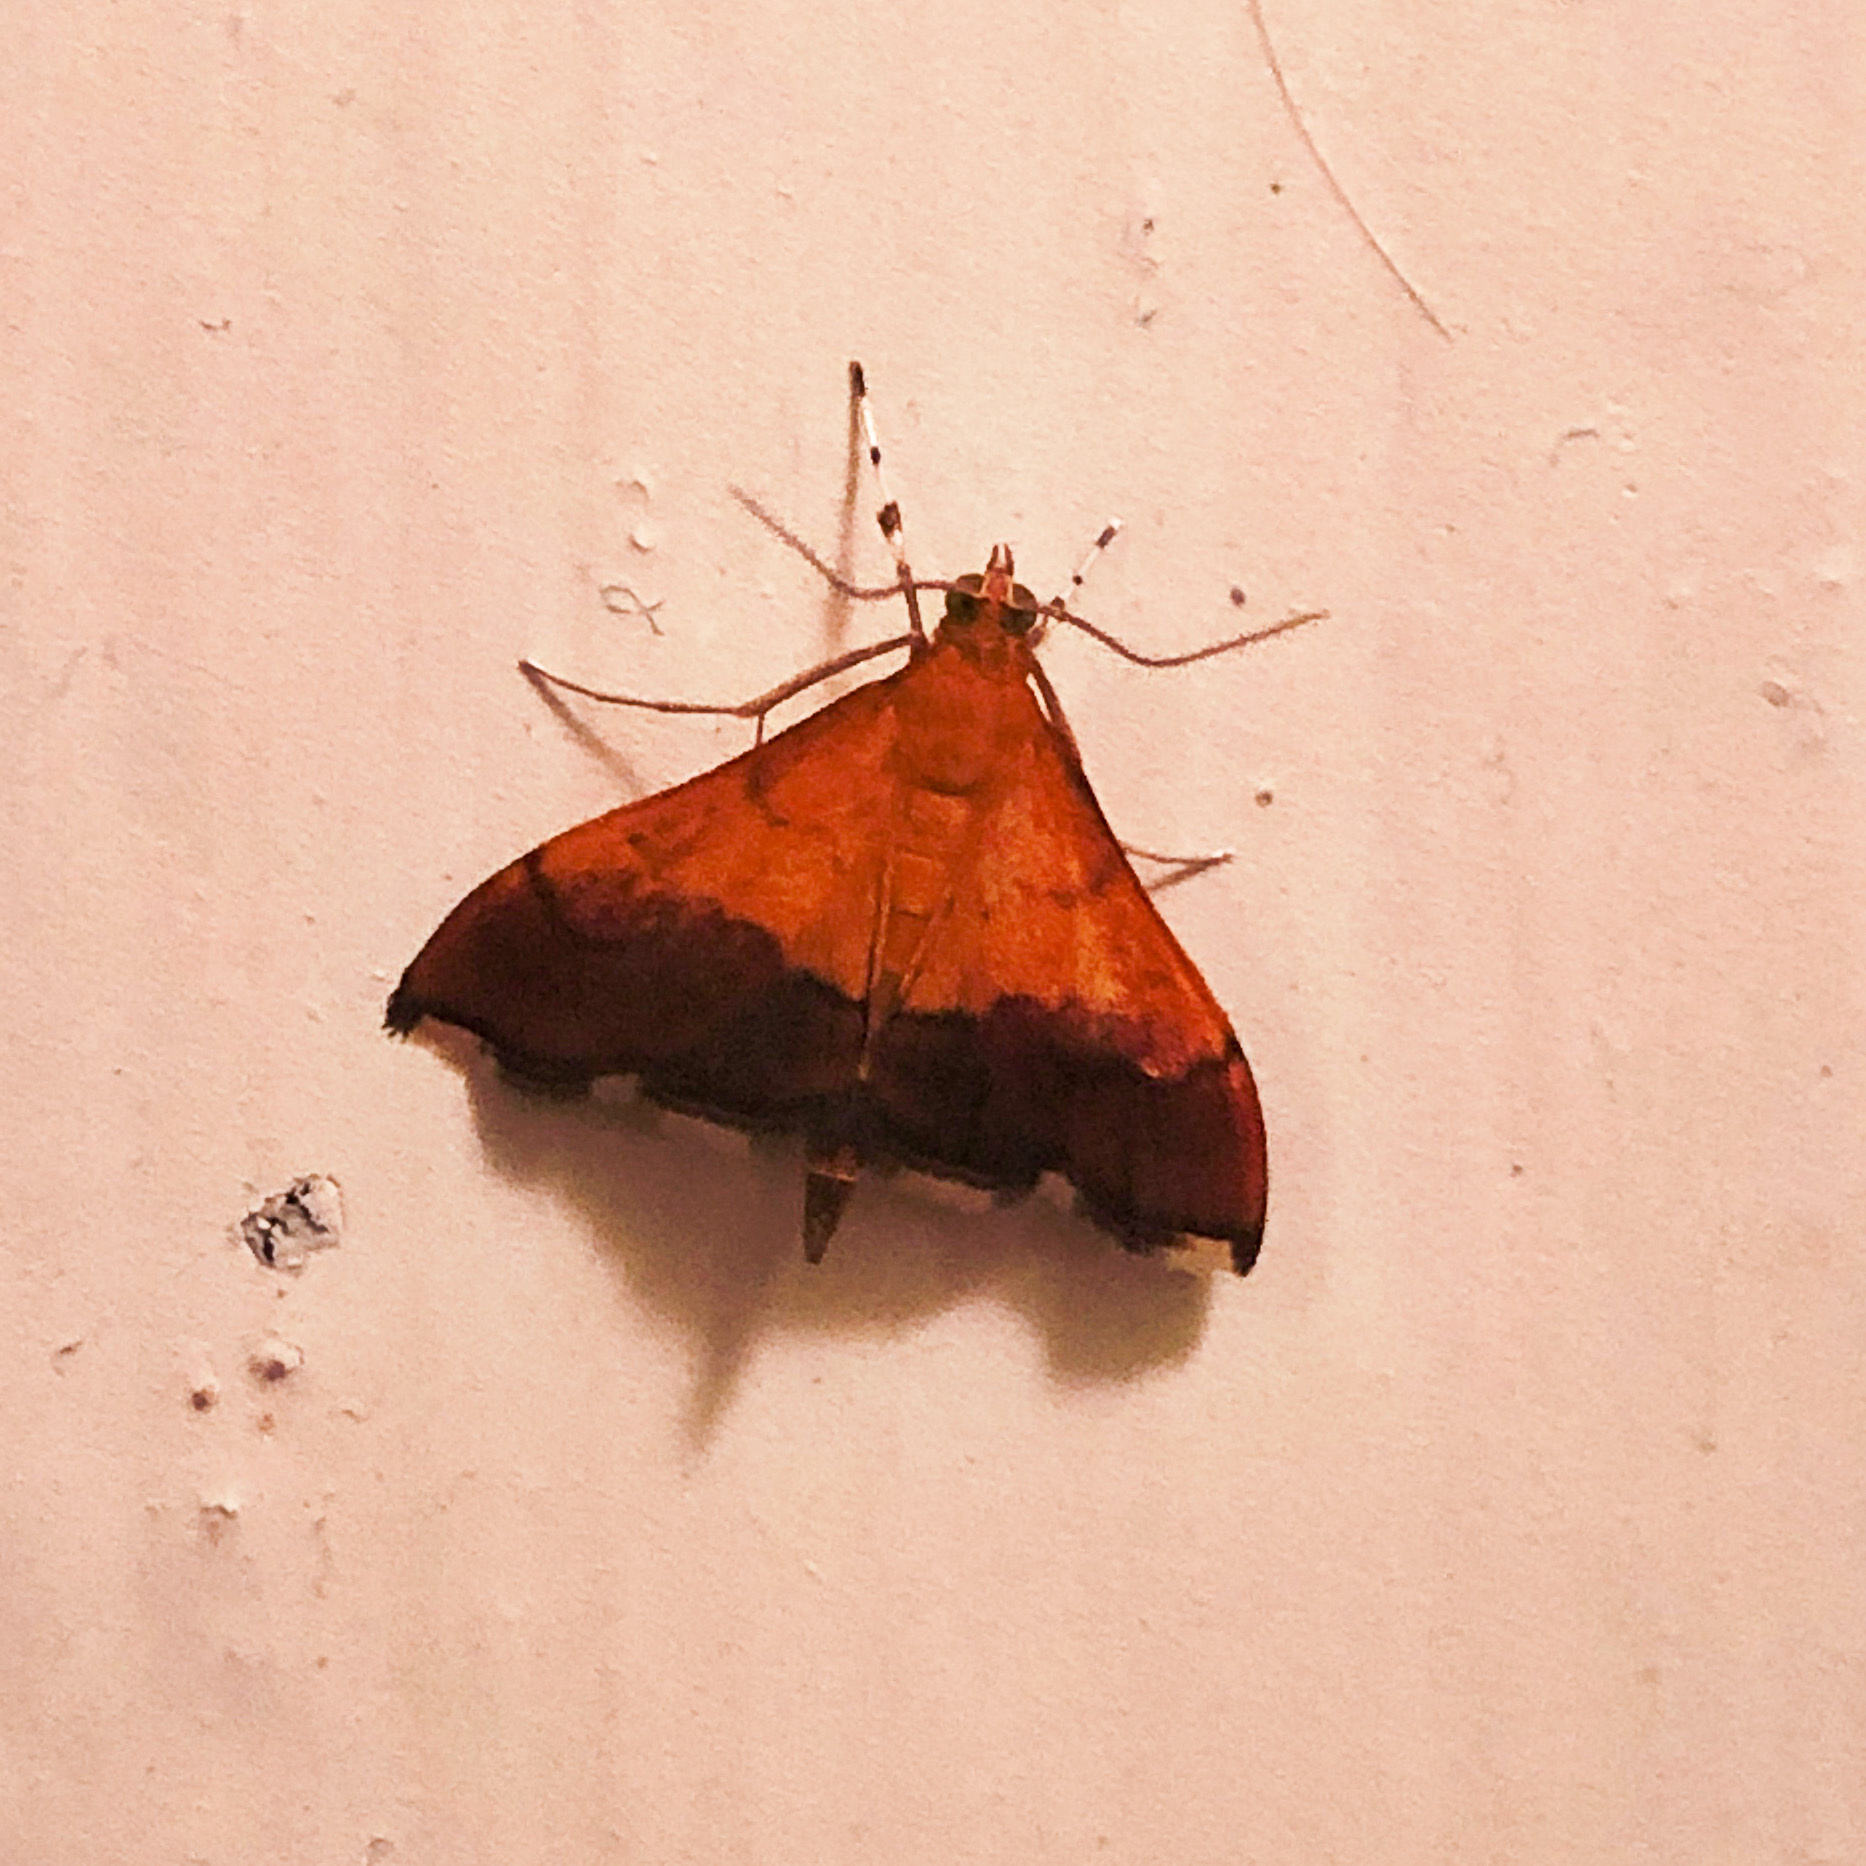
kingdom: Animalia
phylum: Arthropoda
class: Insecta
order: Lepidoptera
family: Crambidae
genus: Pyrausta
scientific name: Pyrausta bicoloralis
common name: Bicolored pyrausta moth
